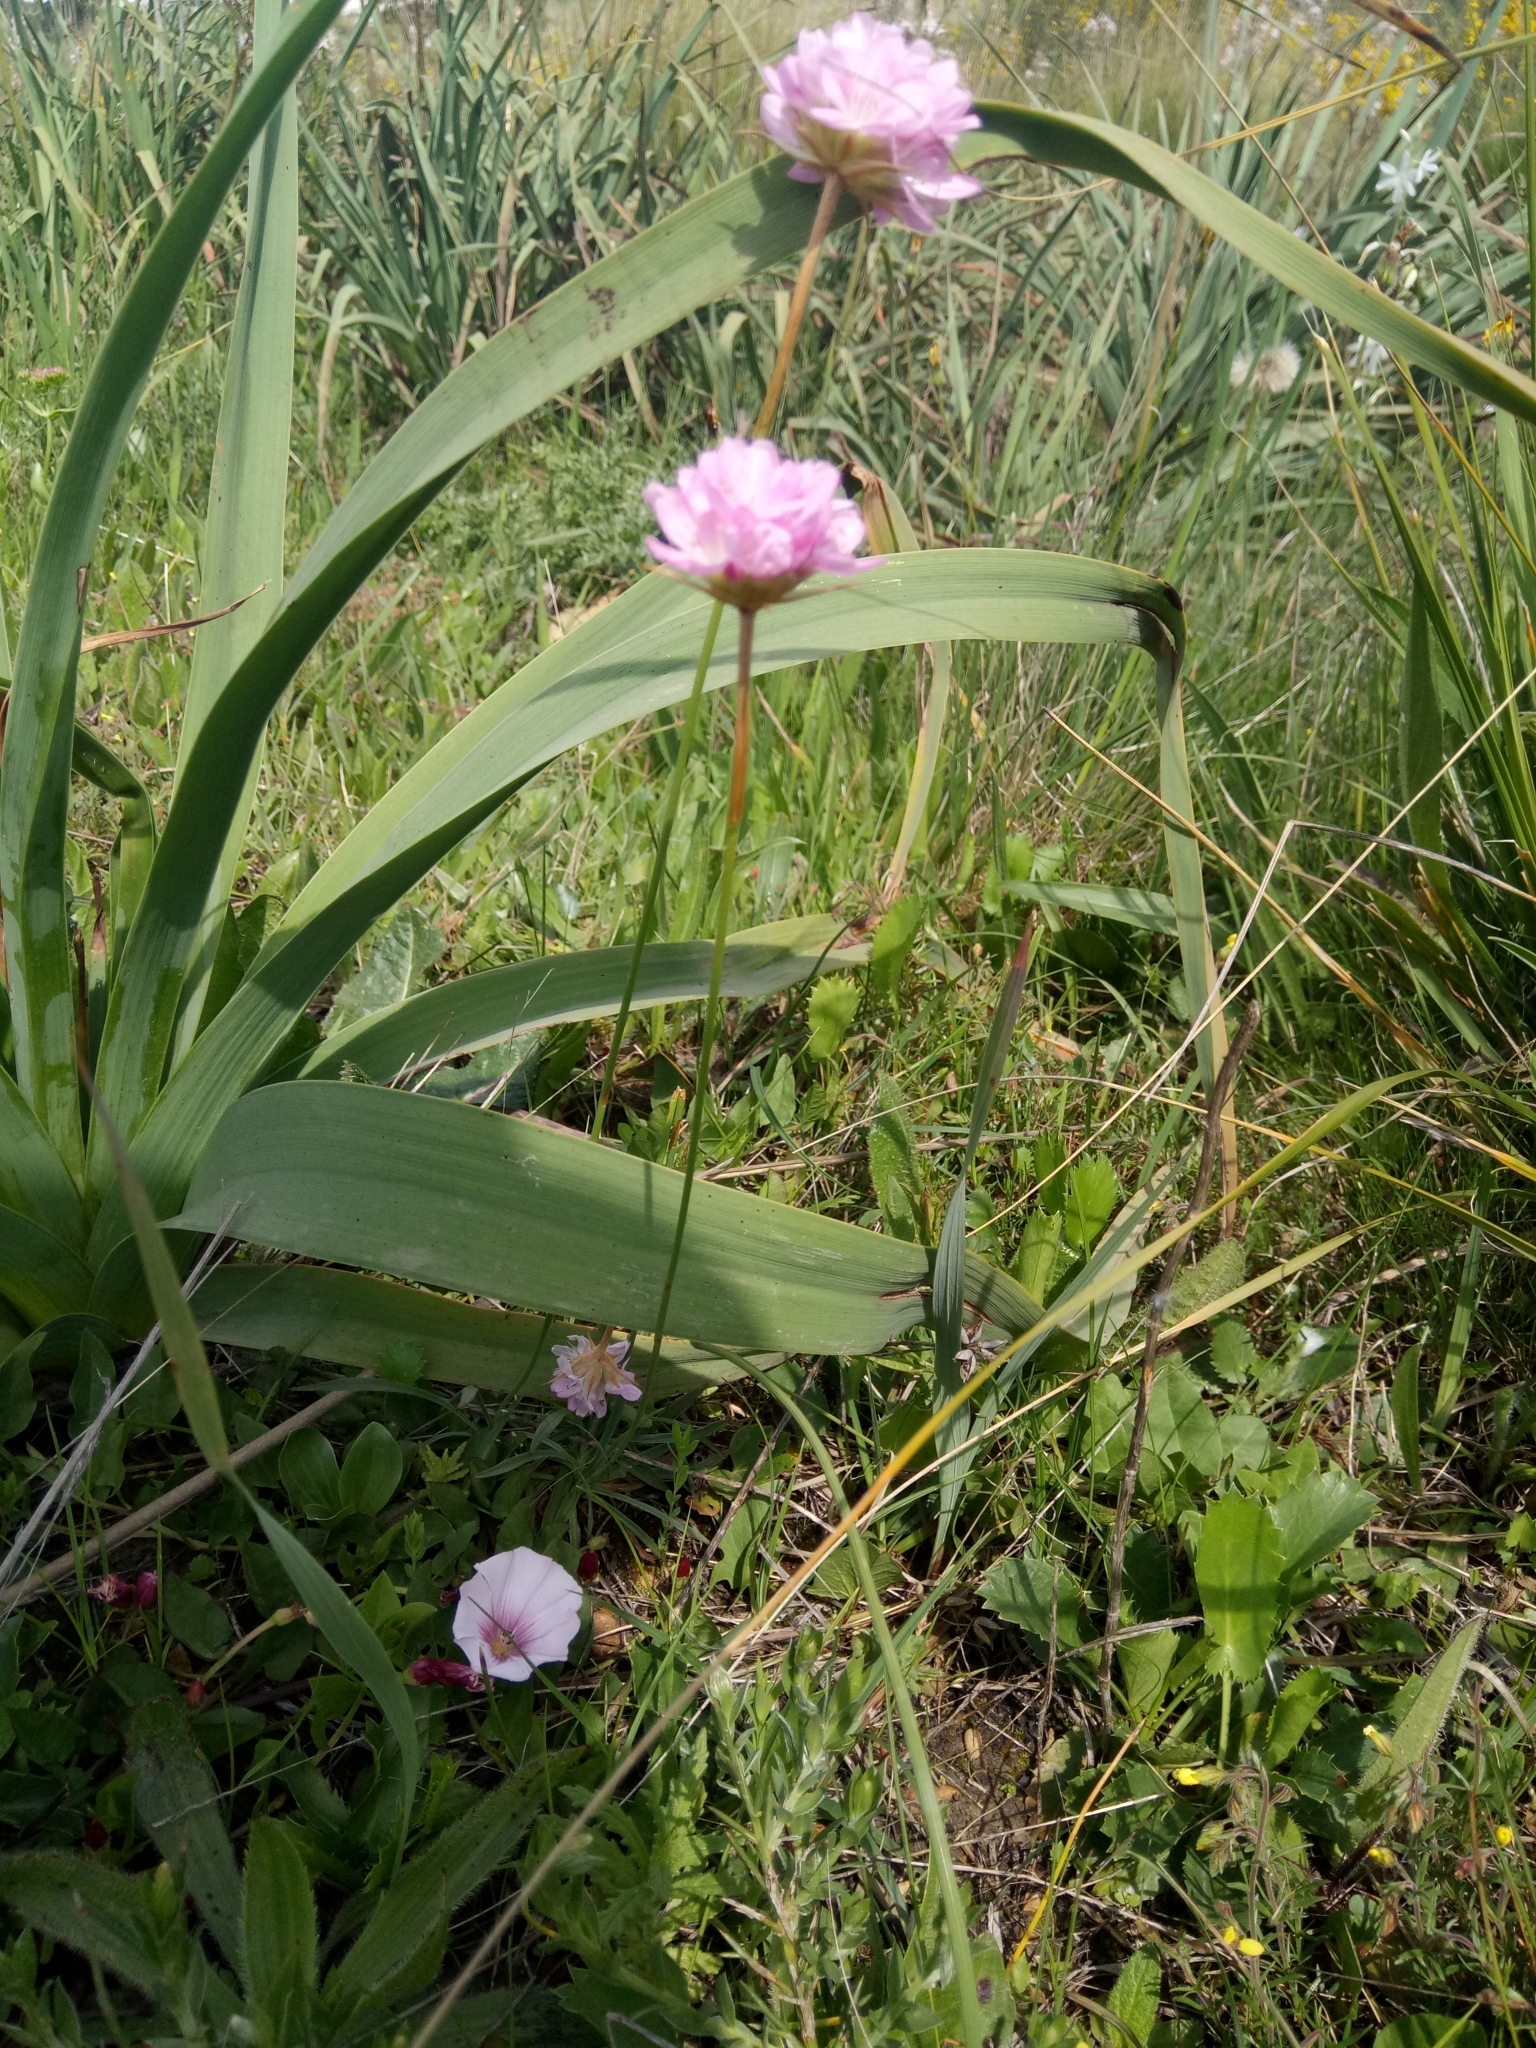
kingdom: Plantae
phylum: Tracheophyta
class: Magnoliopsida
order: Caryophyllales
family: Plumbaginaceae
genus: Armeria
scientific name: Armeria choulettiana
